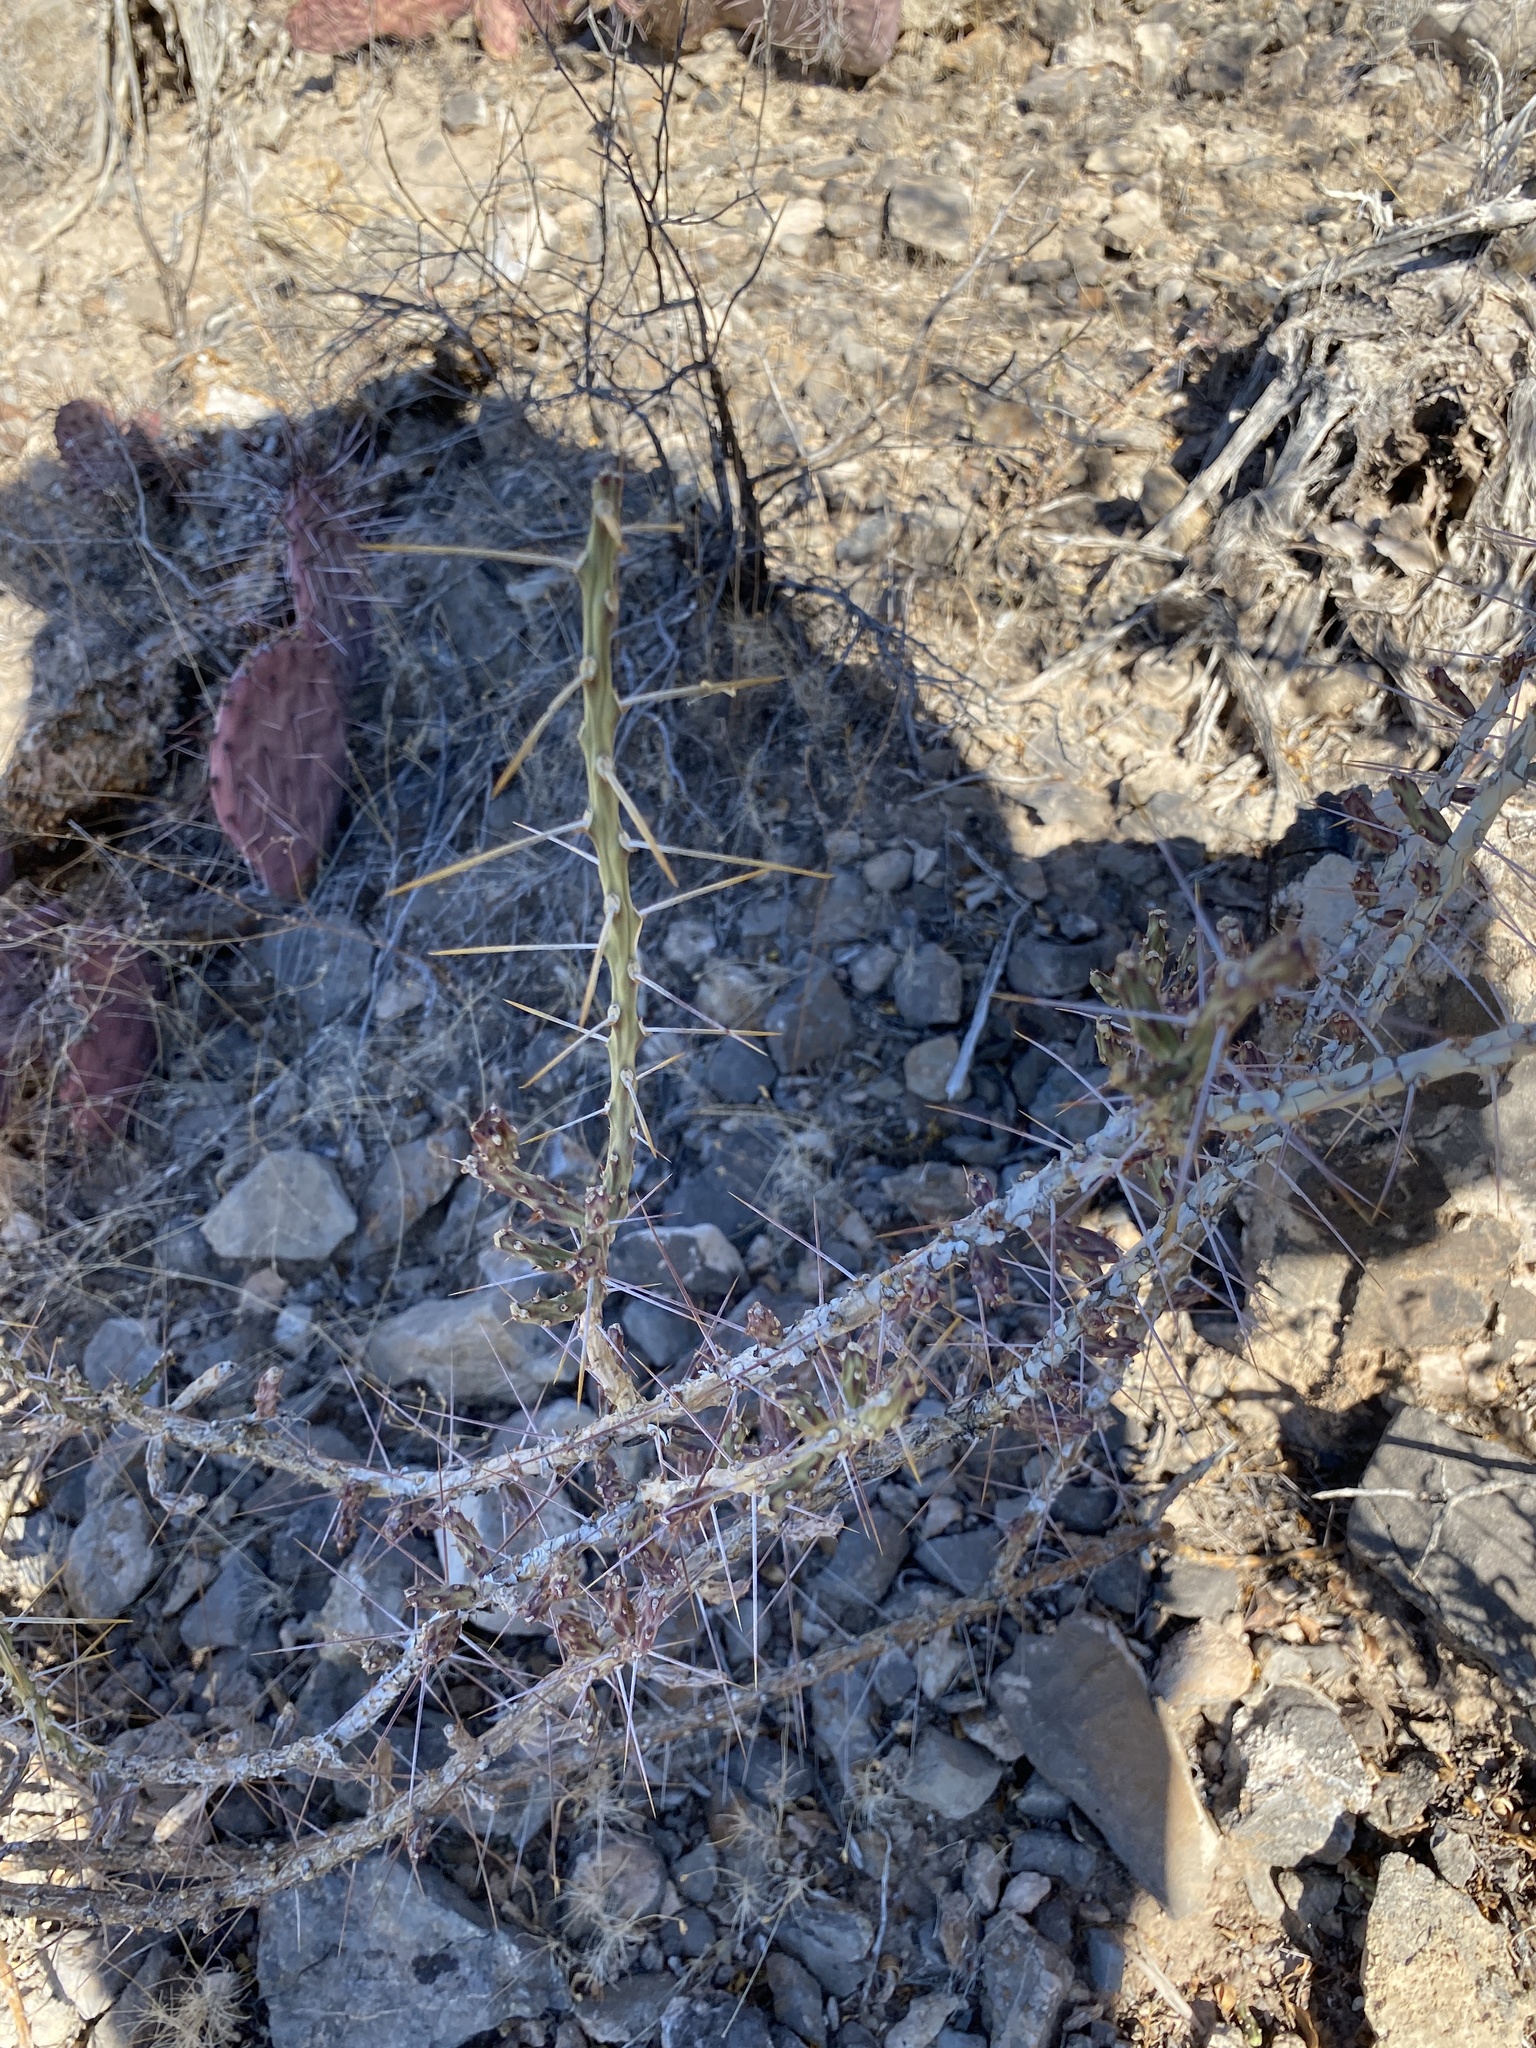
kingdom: Plantae
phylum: Tracheophyta
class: Magnoliopsida
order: Caryophyllales
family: Cactaceae
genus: Cylindropuntia
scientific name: Cylindropuntia leptocaulis
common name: Christmas cactus
